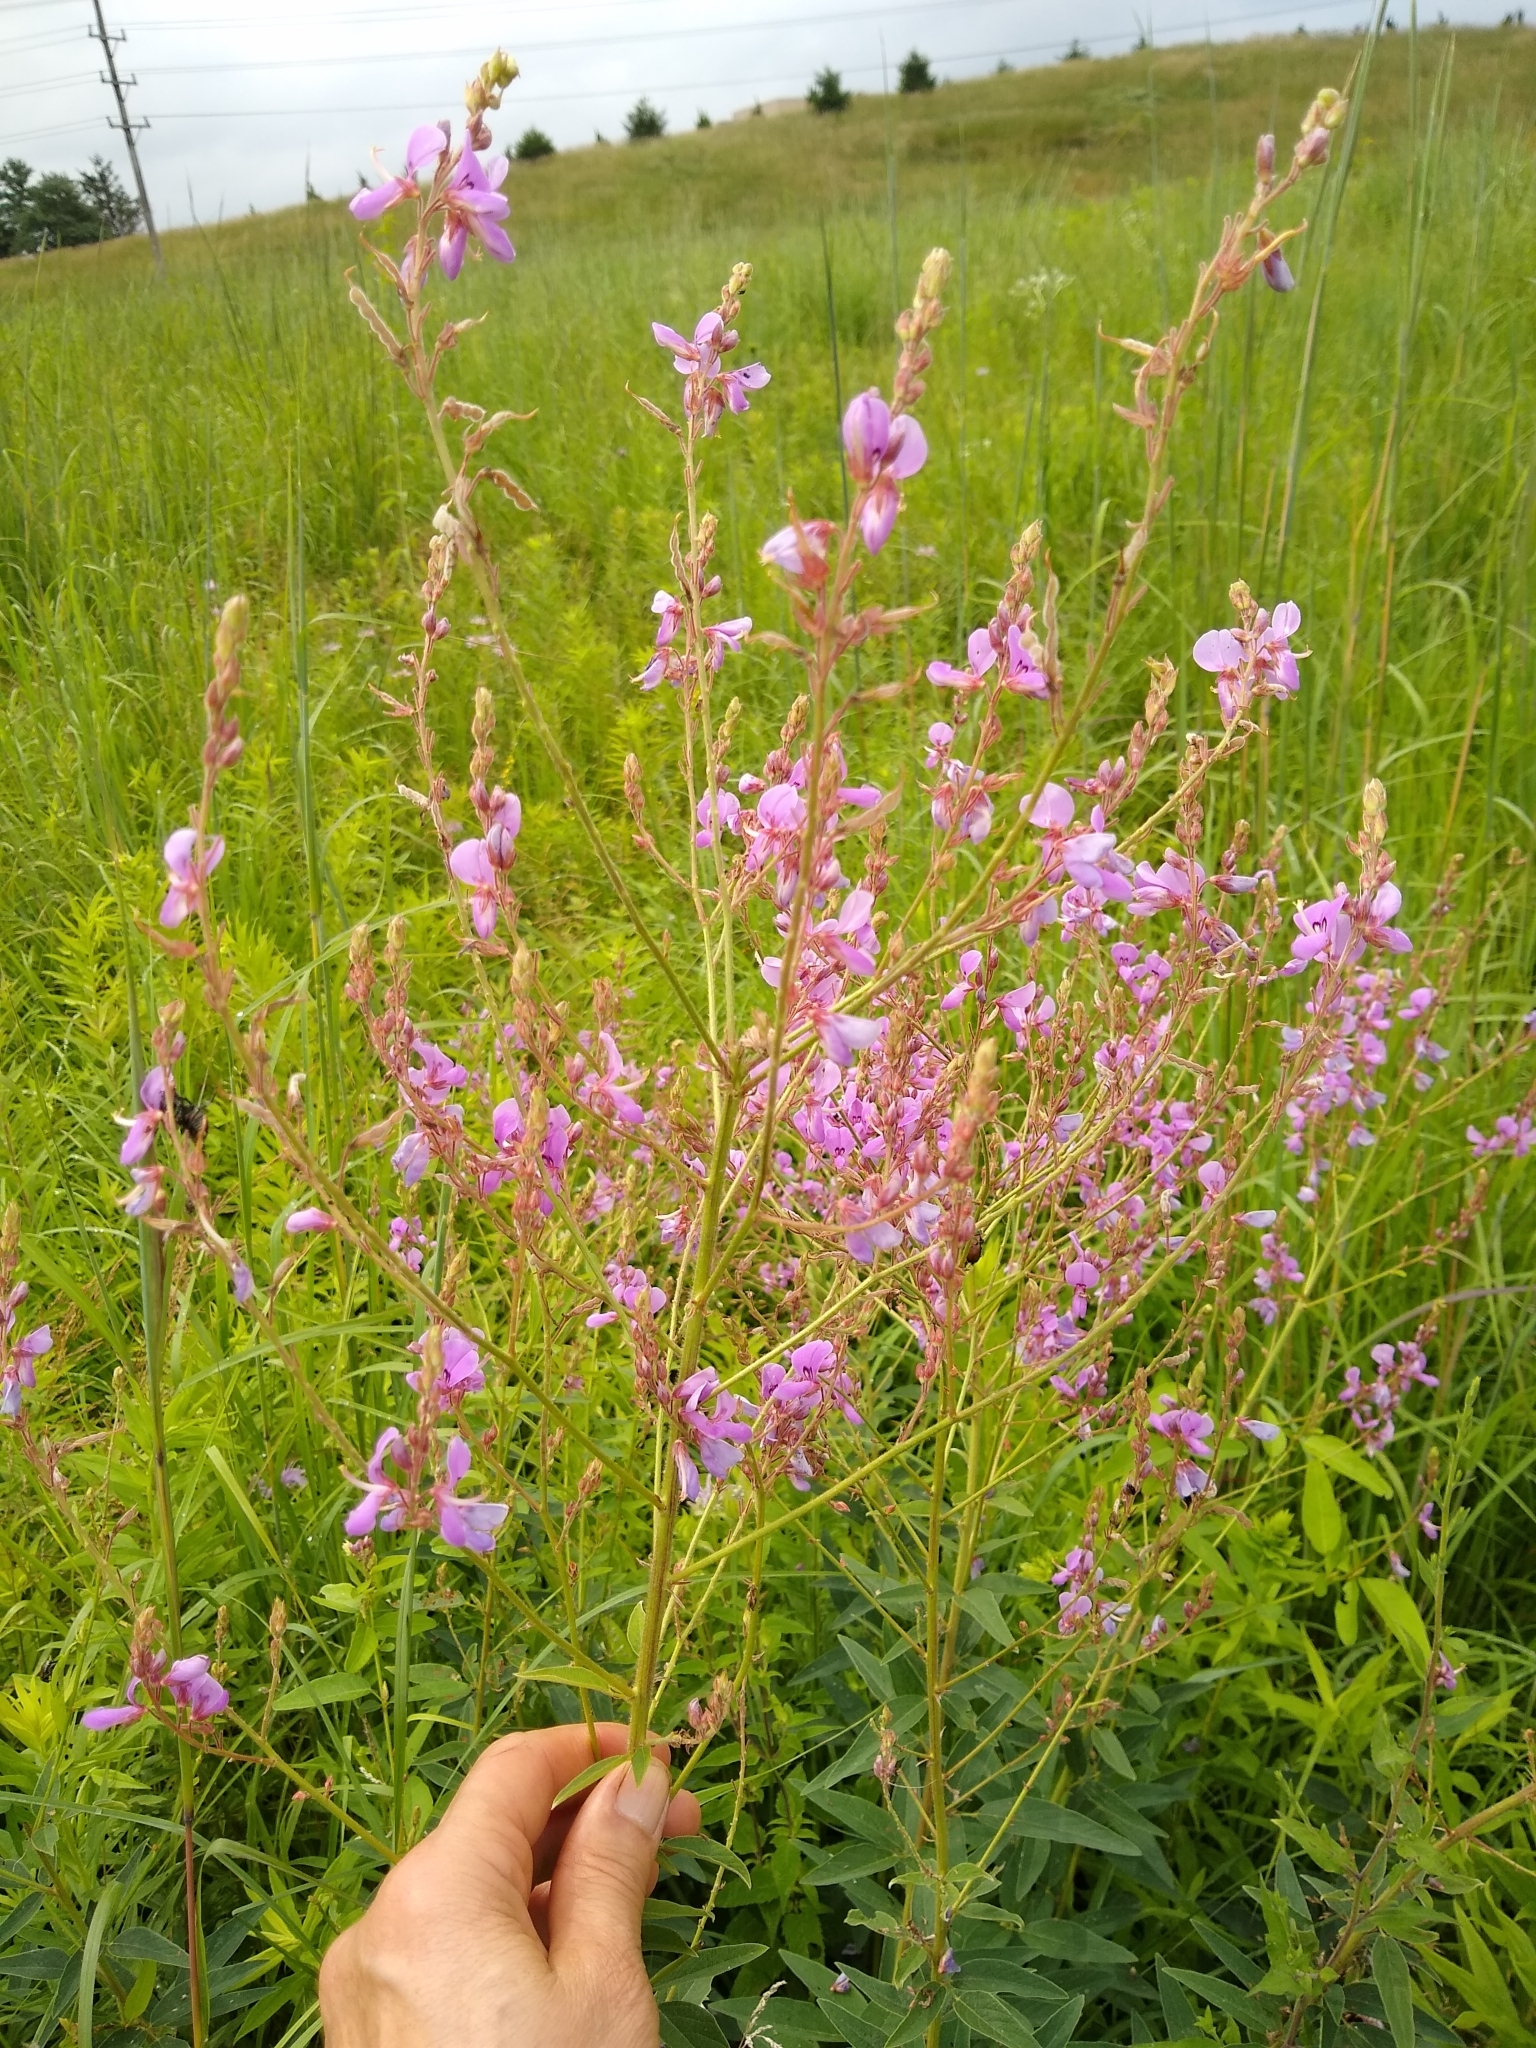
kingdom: Plantae
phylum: Tracheophyta
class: Magnoliopsida
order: Fabales
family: Fabaceae
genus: Desmodium
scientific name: Desmodium canadense
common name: Canada tick-trefoil
